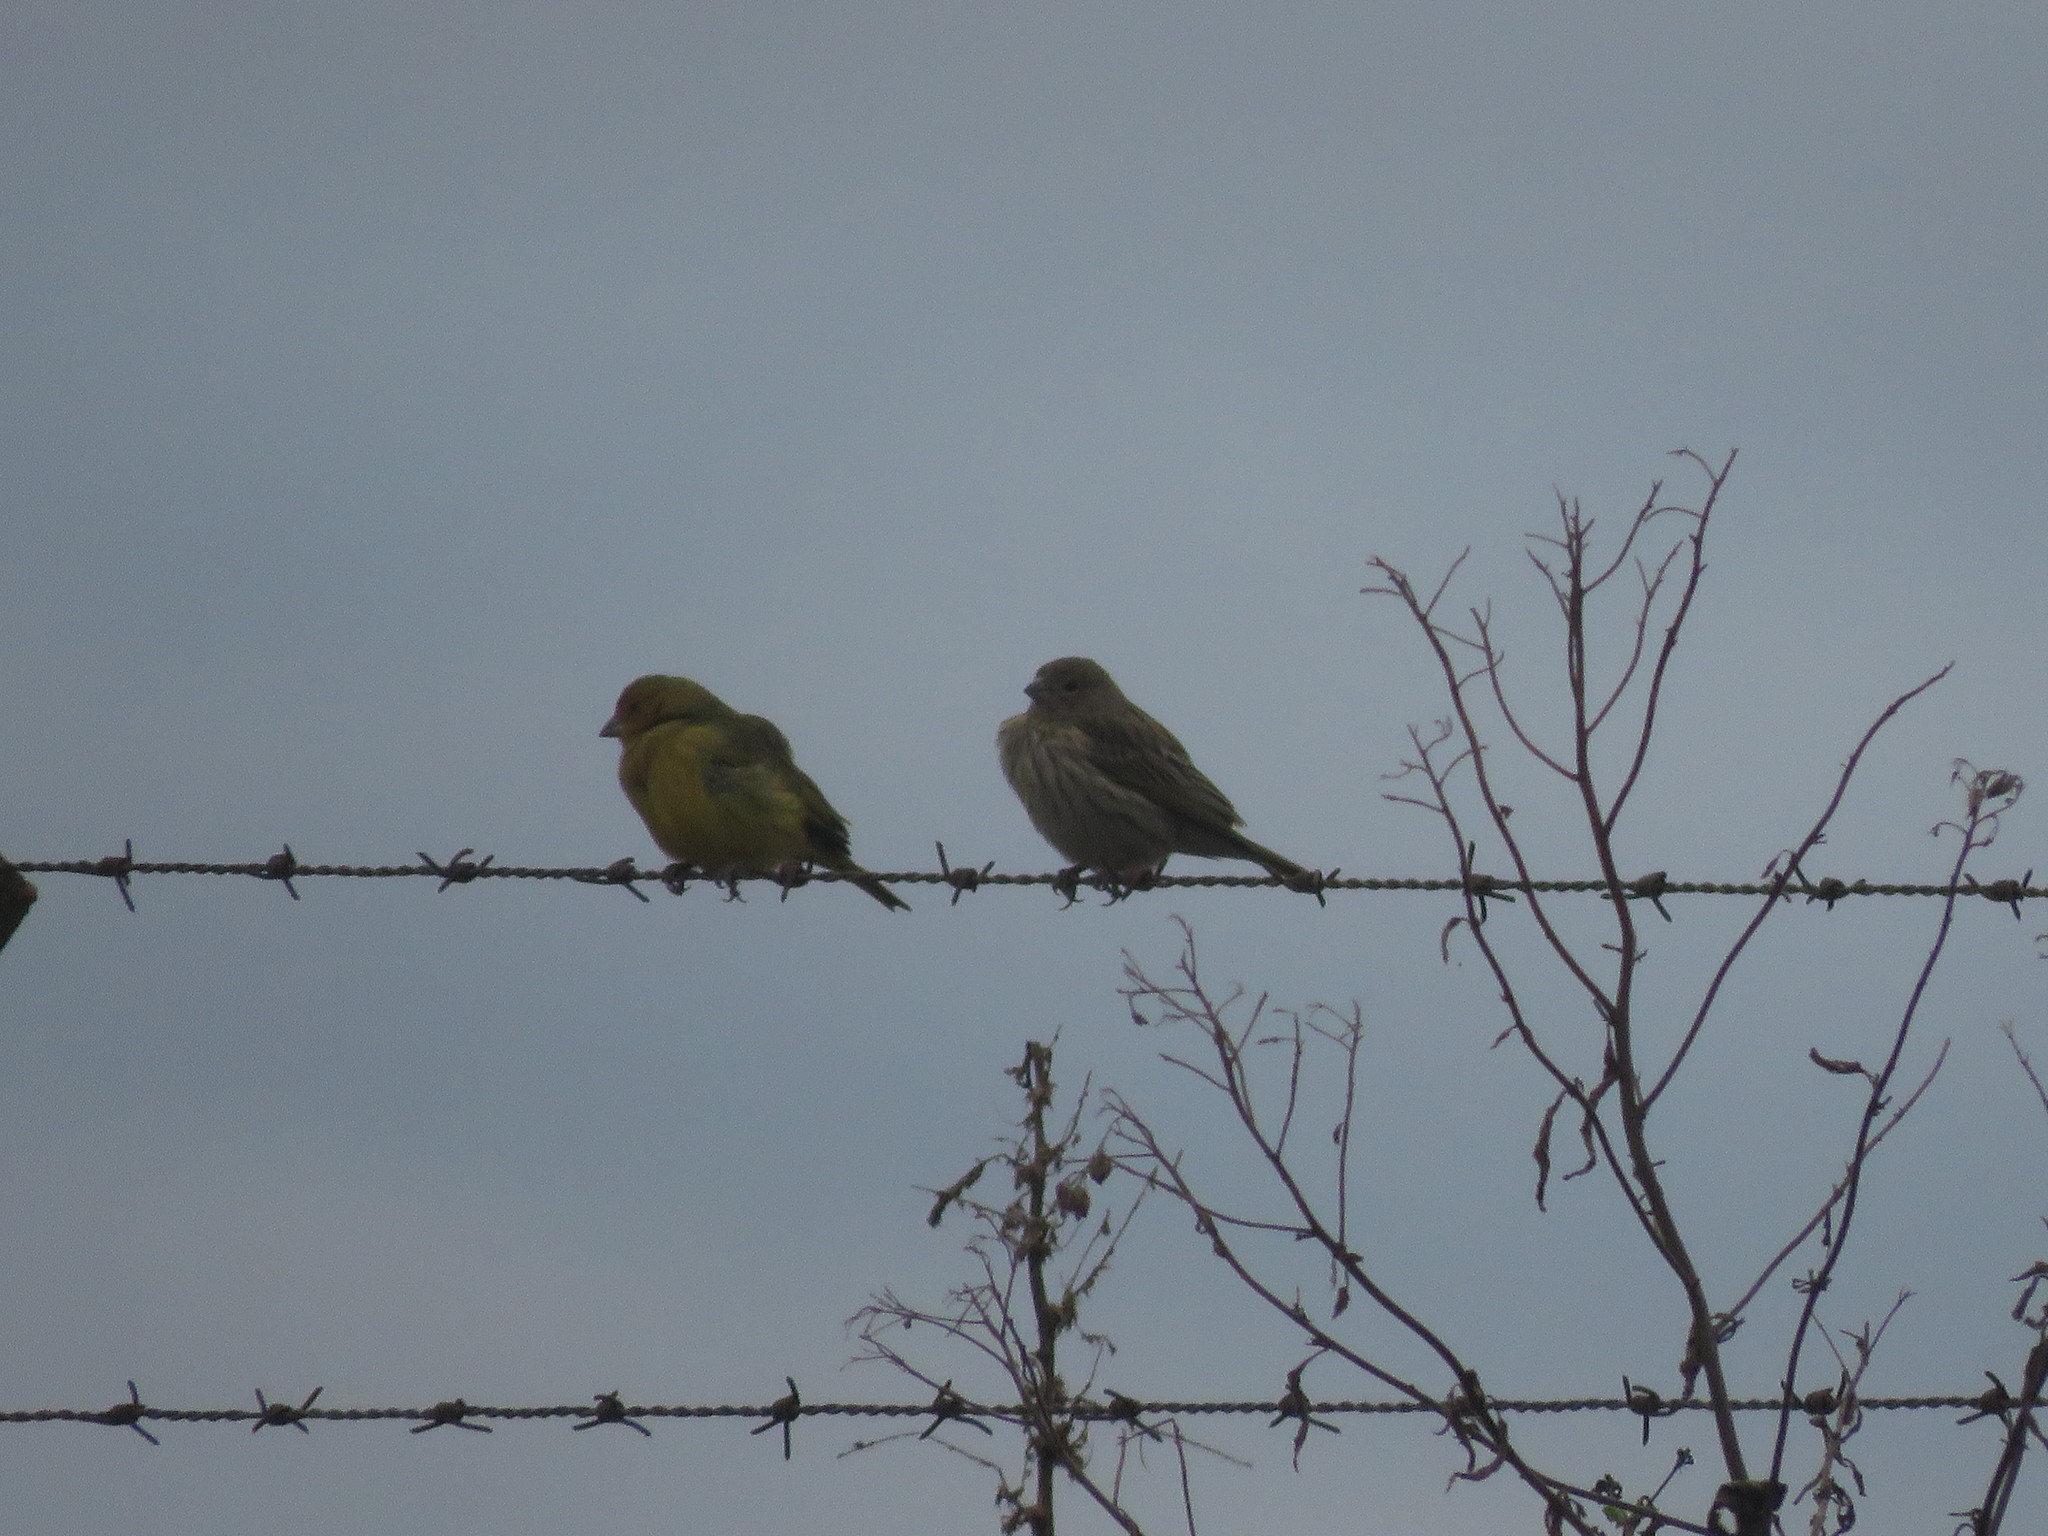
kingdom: Animalia
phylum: Chordata
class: Aves
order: Passeriformes
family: Thraupidae
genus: Sicalis
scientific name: Sicalis flaveola
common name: Saffron finch
